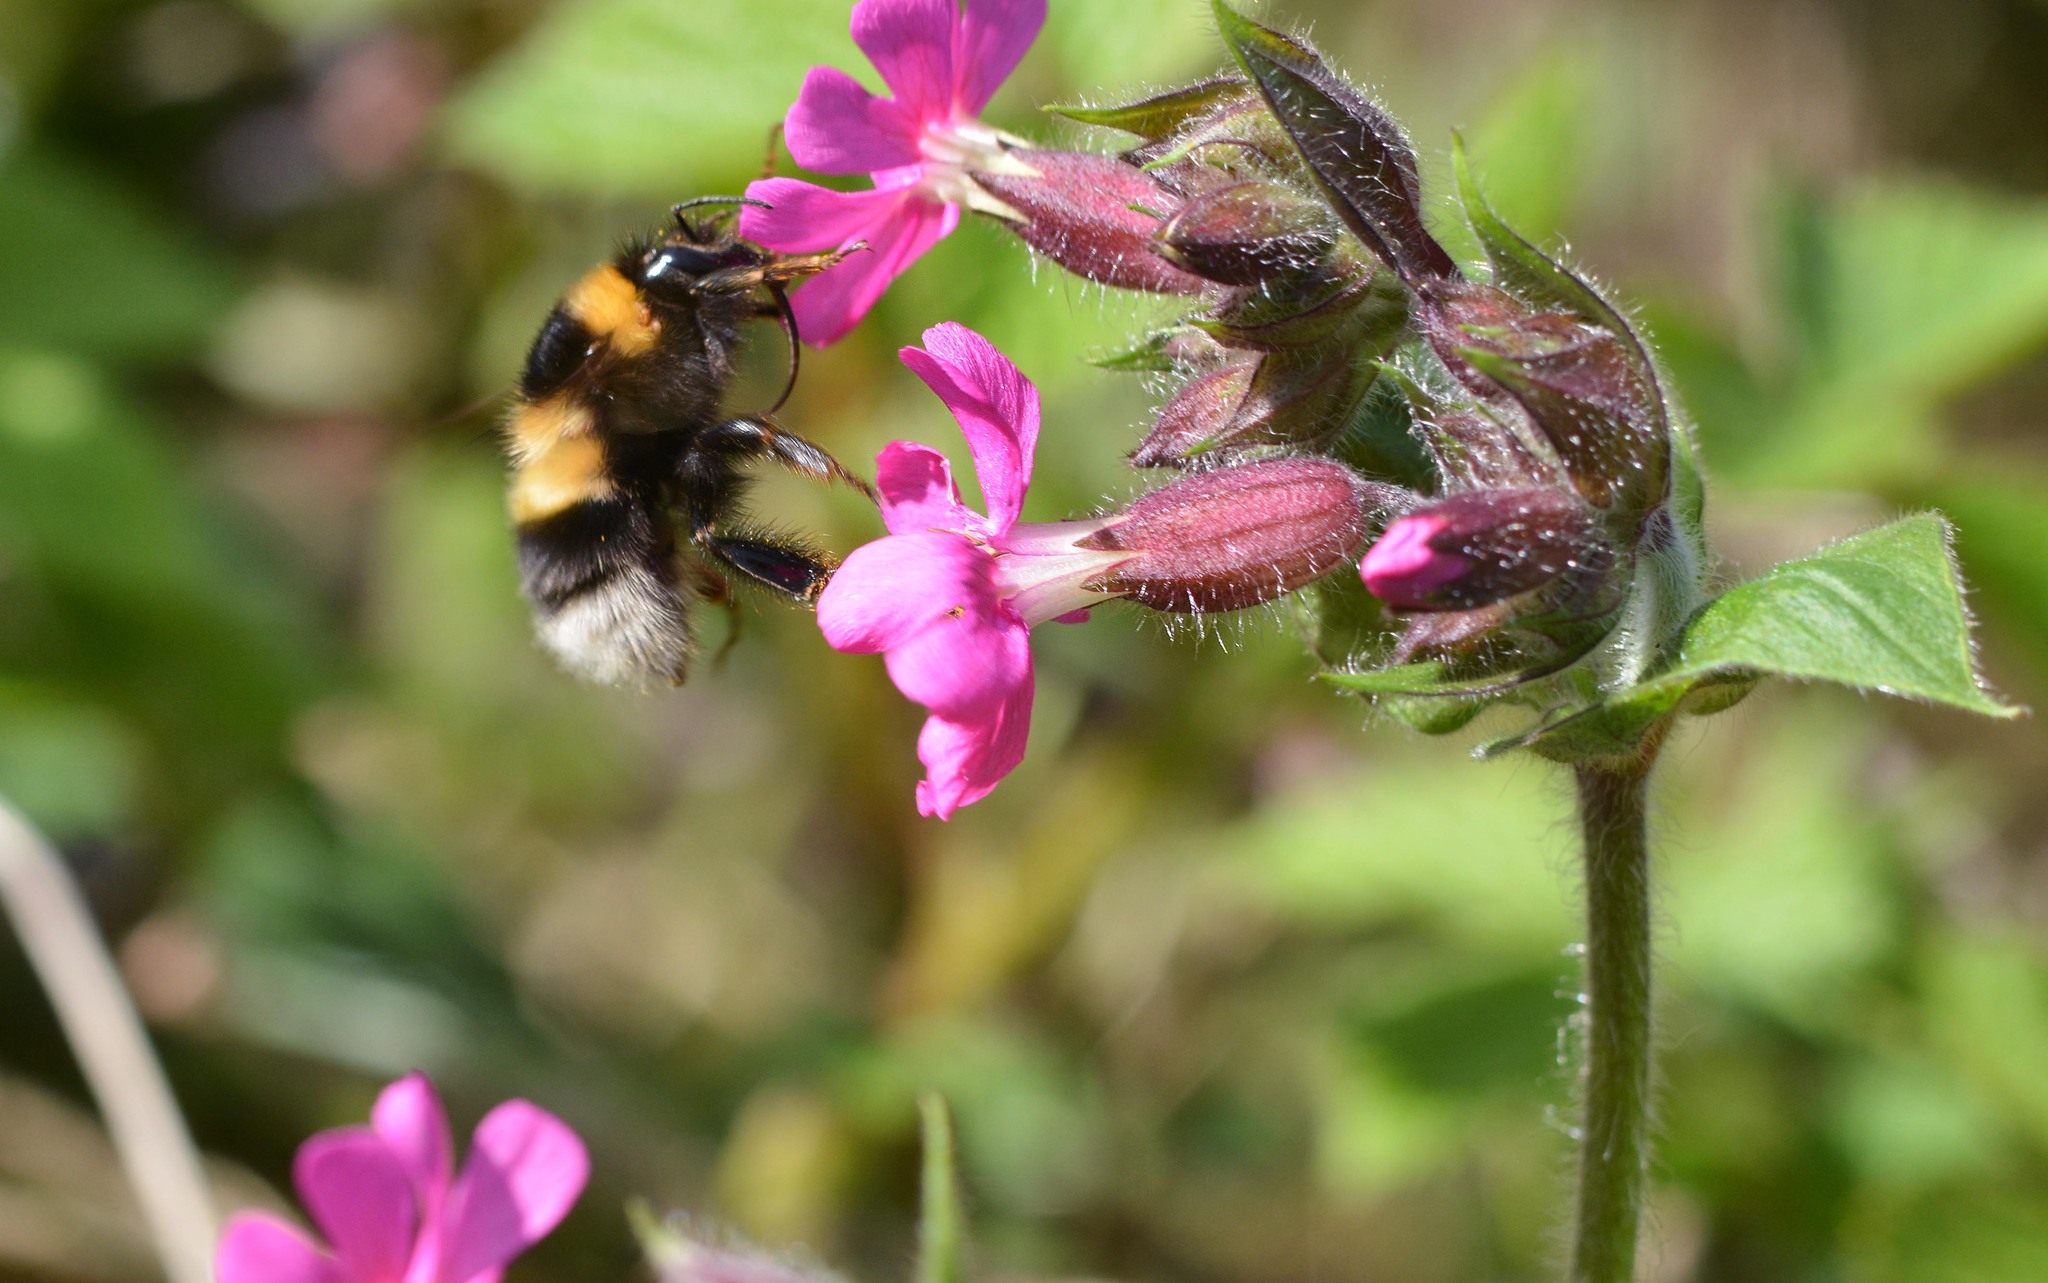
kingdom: Animalia
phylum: Arthropoda
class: Insecta
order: Hymenoptera
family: Apidae
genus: Bombus
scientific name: Bombus hortorum
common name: Garden bumblebee
